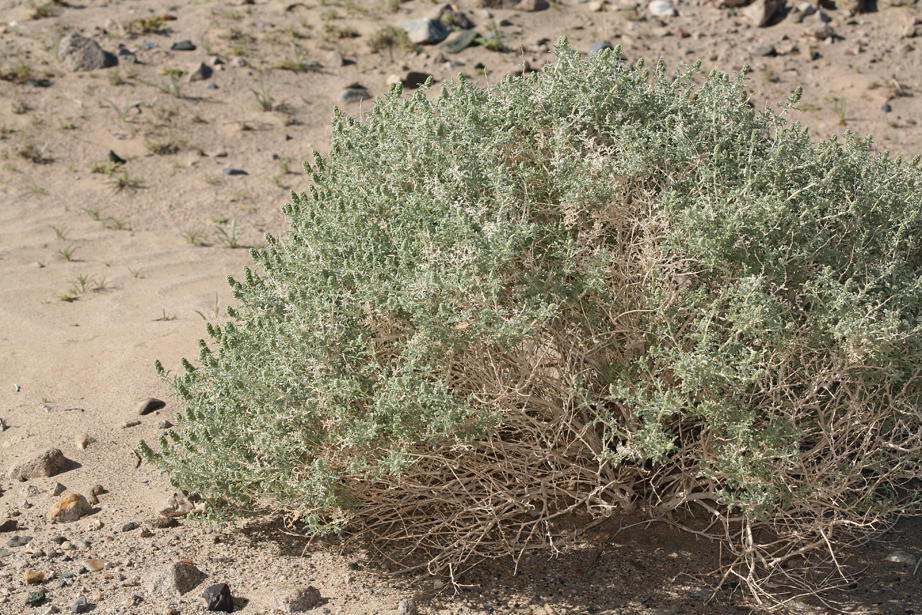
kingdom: Plantae
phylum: Tracheophyta
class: Magnoliopsida
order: Asterales
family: Asteraceae
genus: Ambrosia
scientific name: Ambrosia dumosa
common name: Bur-sage
